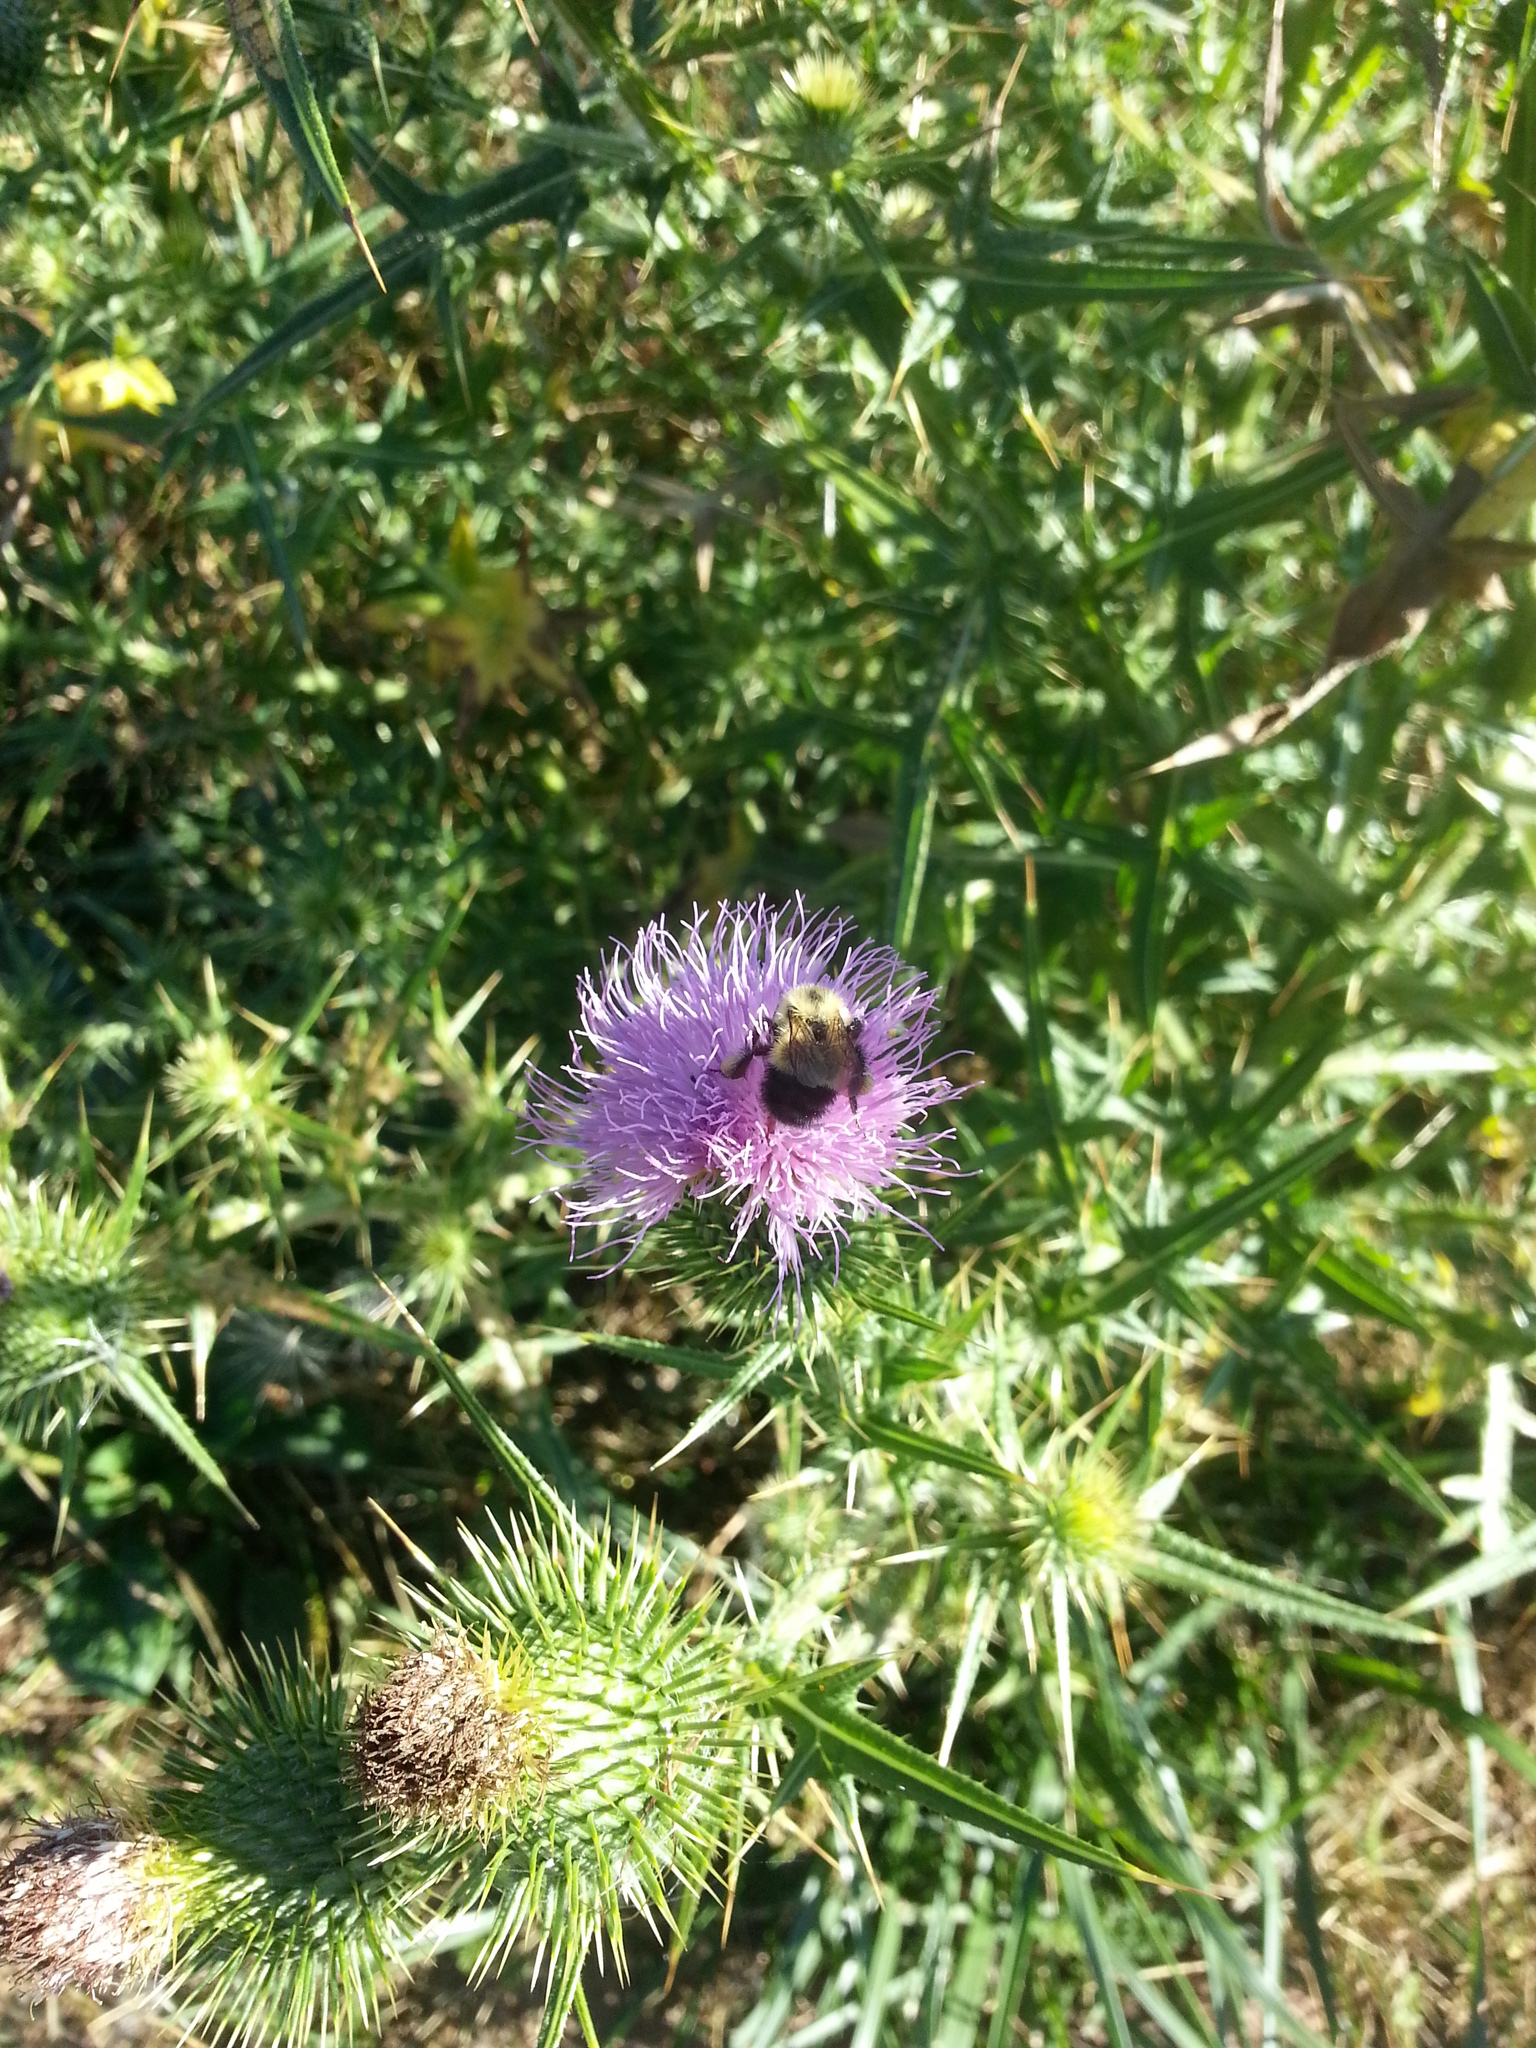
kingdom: Animalia
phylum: Arthropoda
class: Insecta
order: Hymenoptera
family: Apidae
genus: Pyrobombus
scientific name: Pyrobombus
